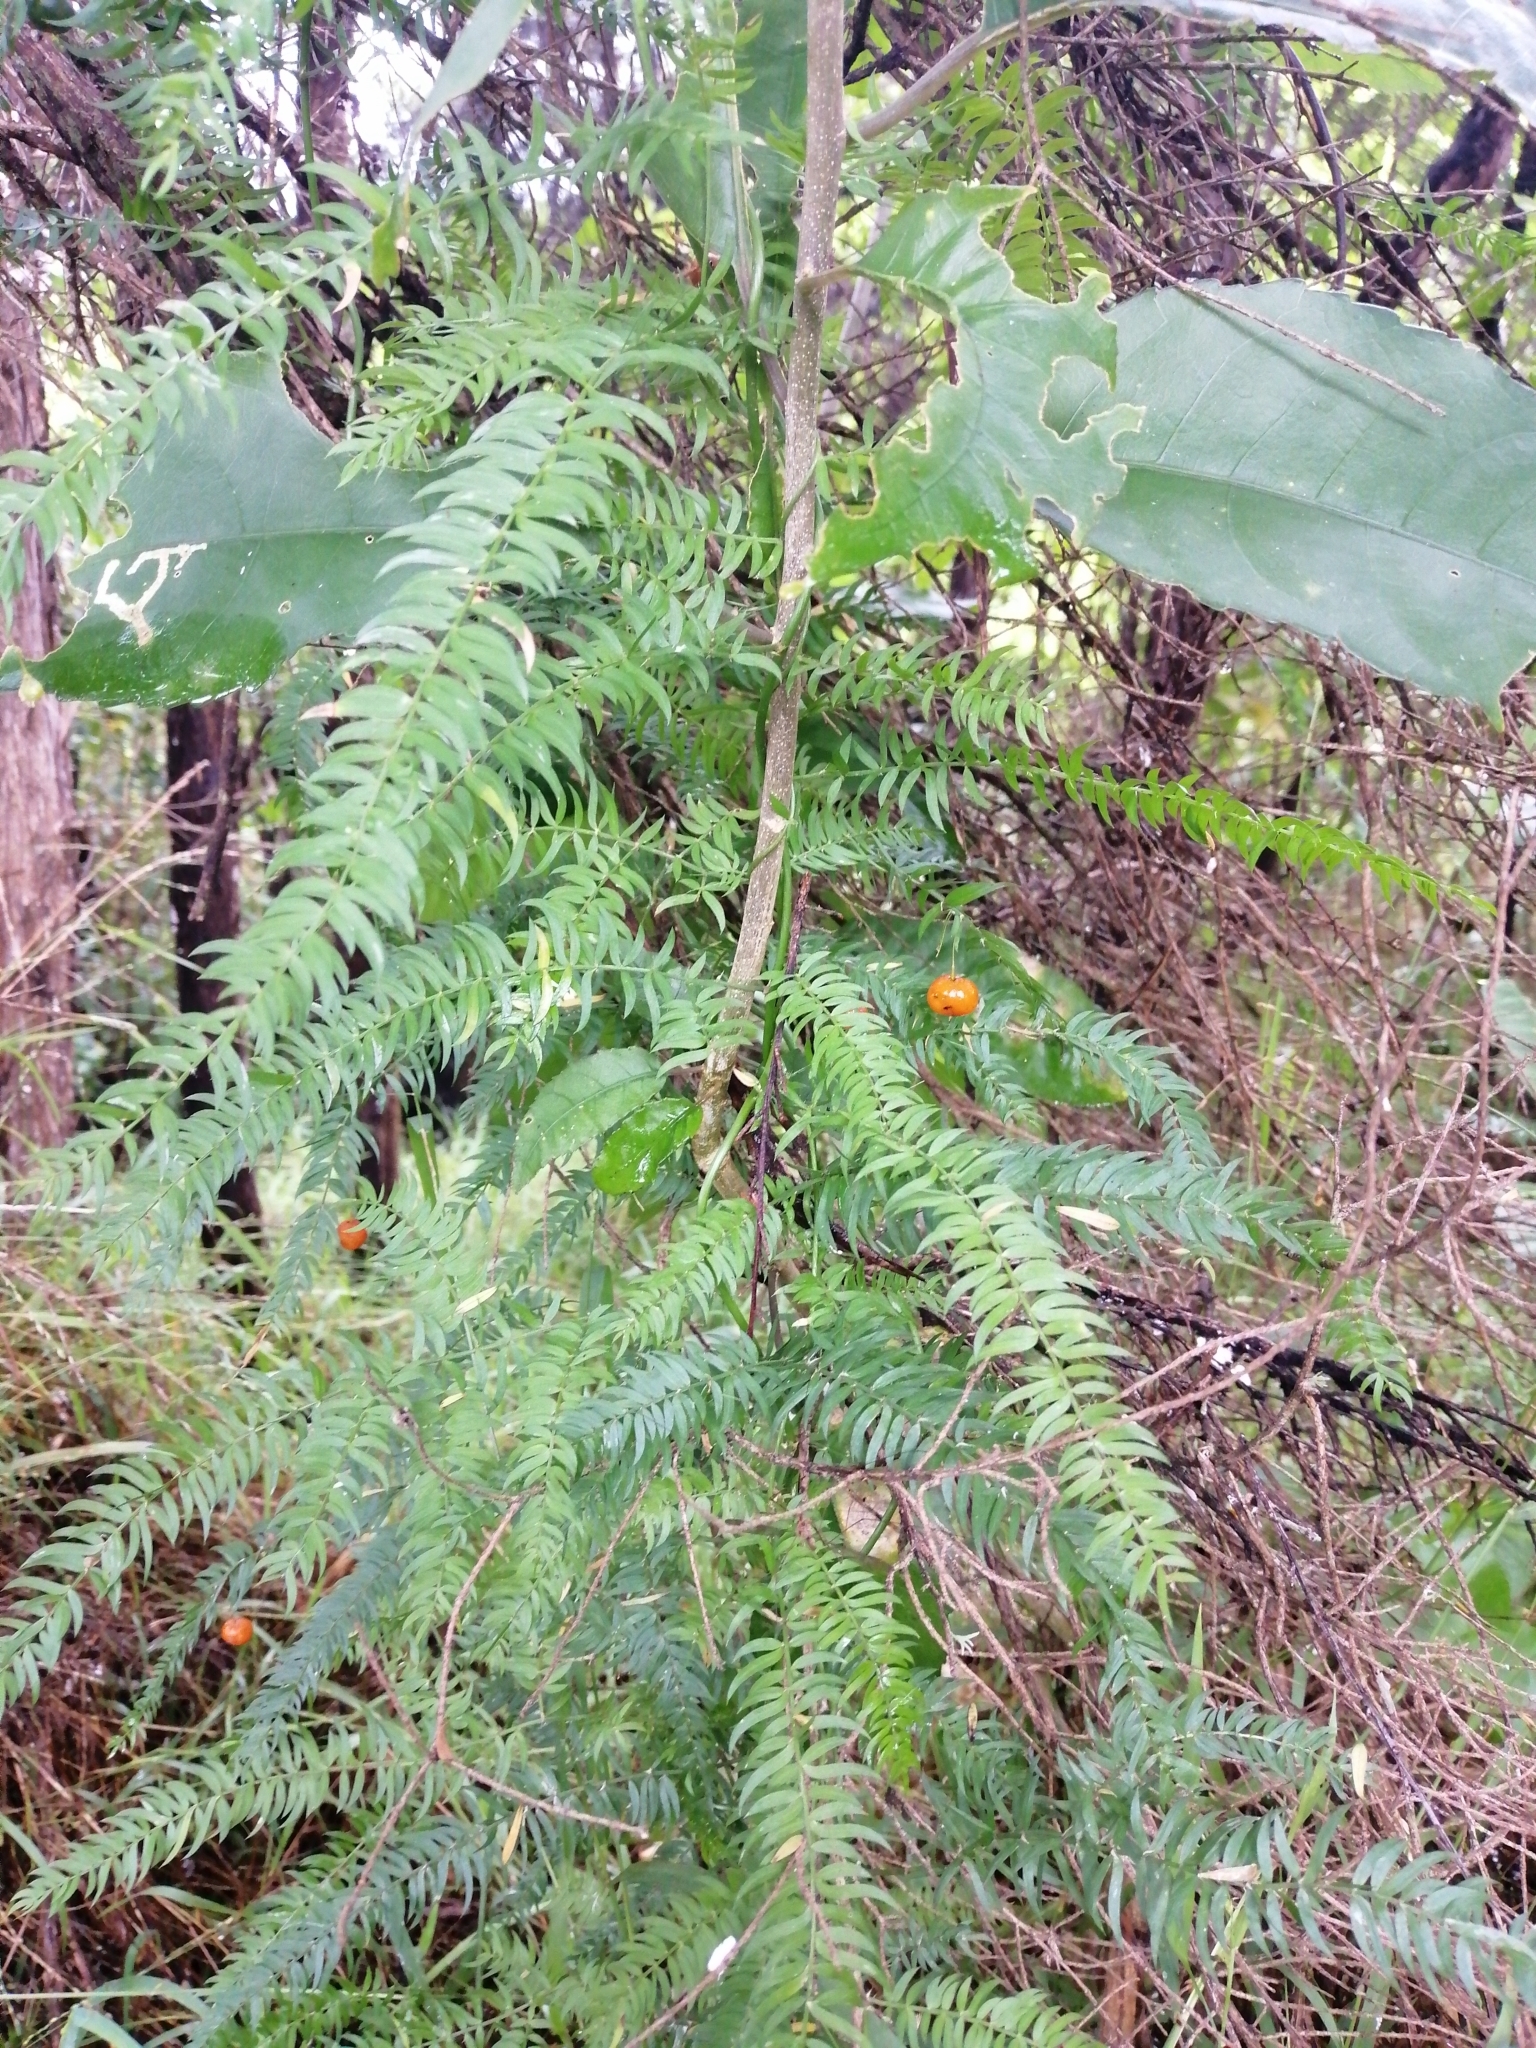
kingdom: Plantae
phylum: Tracheophyta
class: Liliopsida
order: Asparagales
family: Asparagaceae
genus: Asparagus
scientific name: Asparagus scandens
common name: Asparagus-fern
